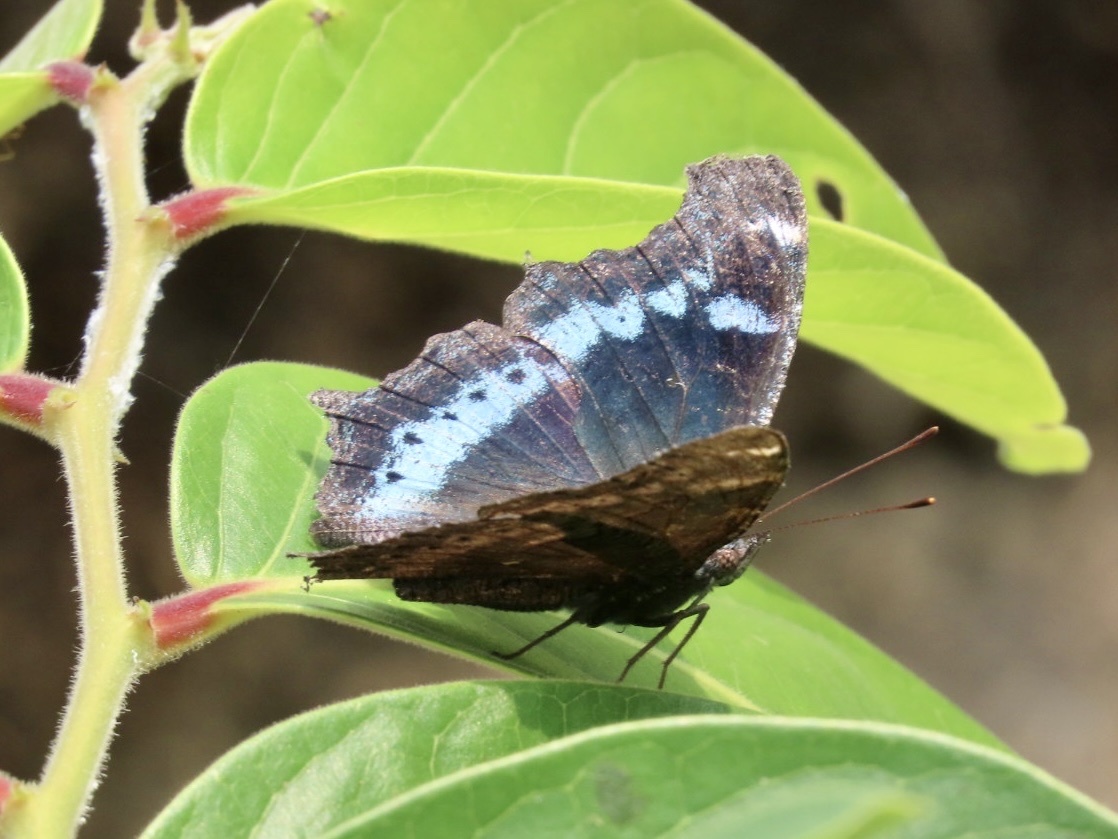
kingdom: Animalia
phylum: Arthropoda
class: Insecta
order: Lepidoptera
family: Nymphalidae
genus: Vanessa
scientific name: Vanessa Kaniska canace
